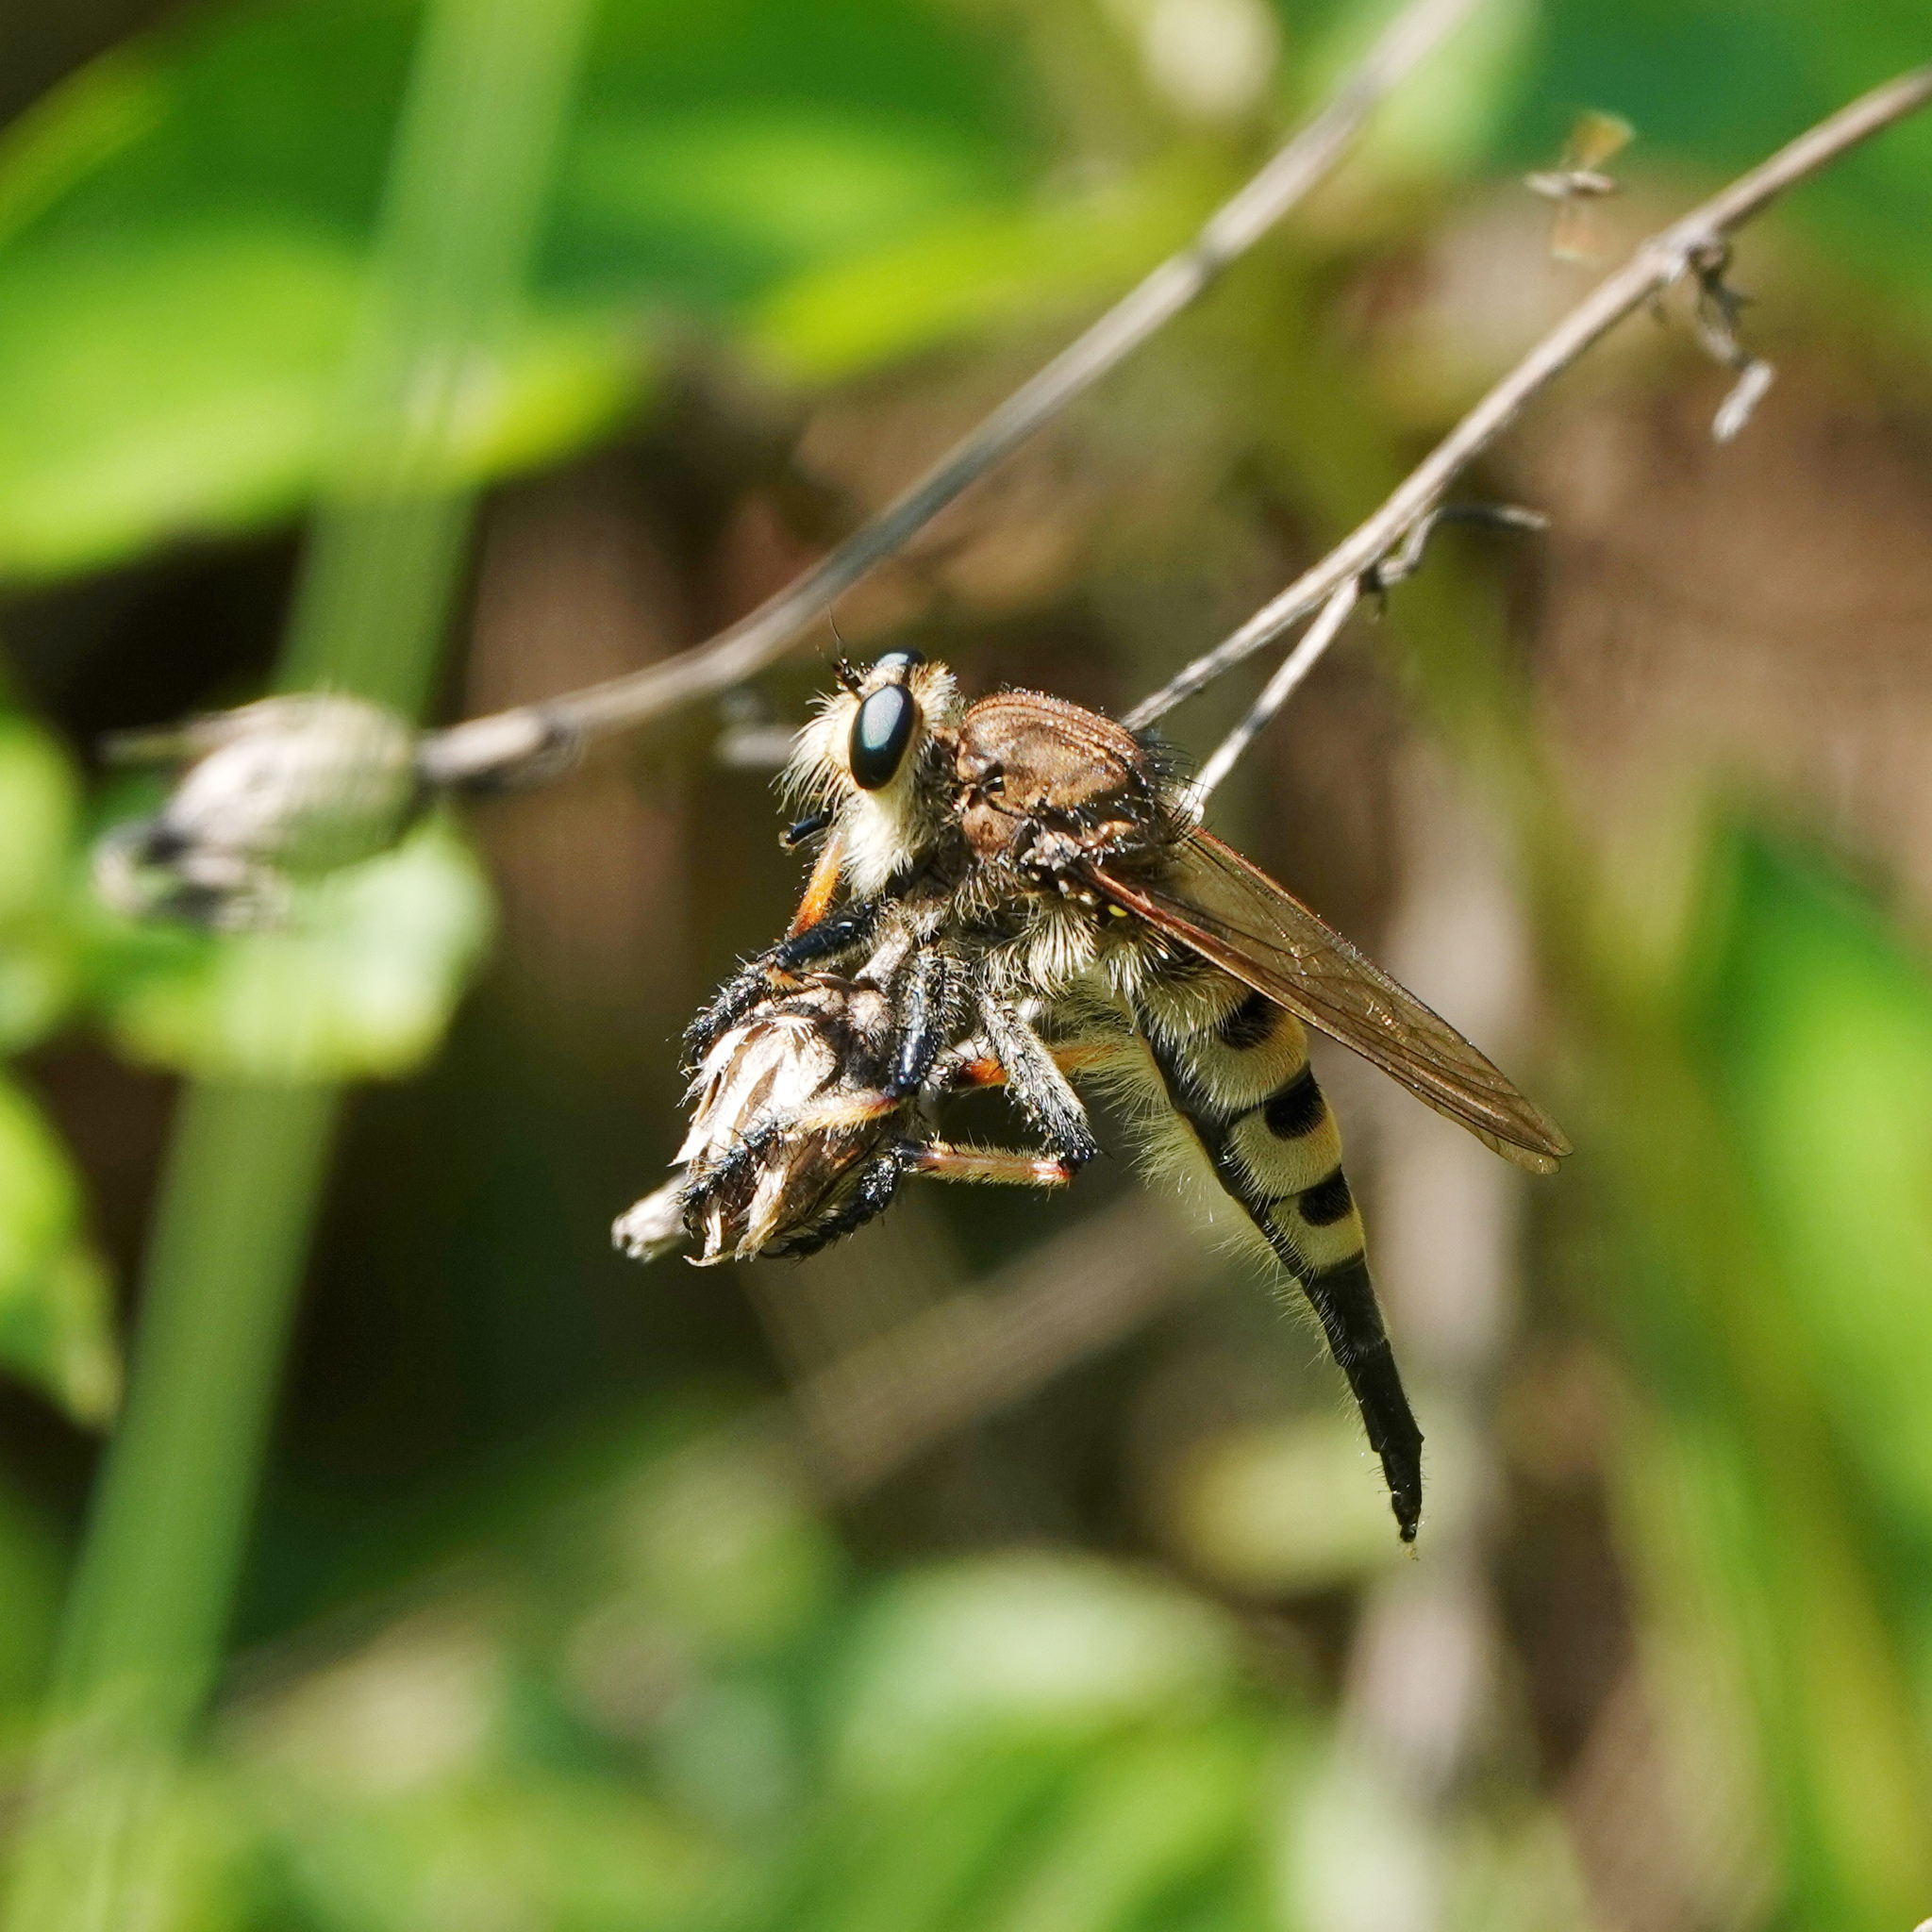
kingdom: Animalia
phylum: Arthropoda
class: Insecta
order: Diptera
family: Asilidae
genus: Promachus
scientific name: Promachus rufipes
